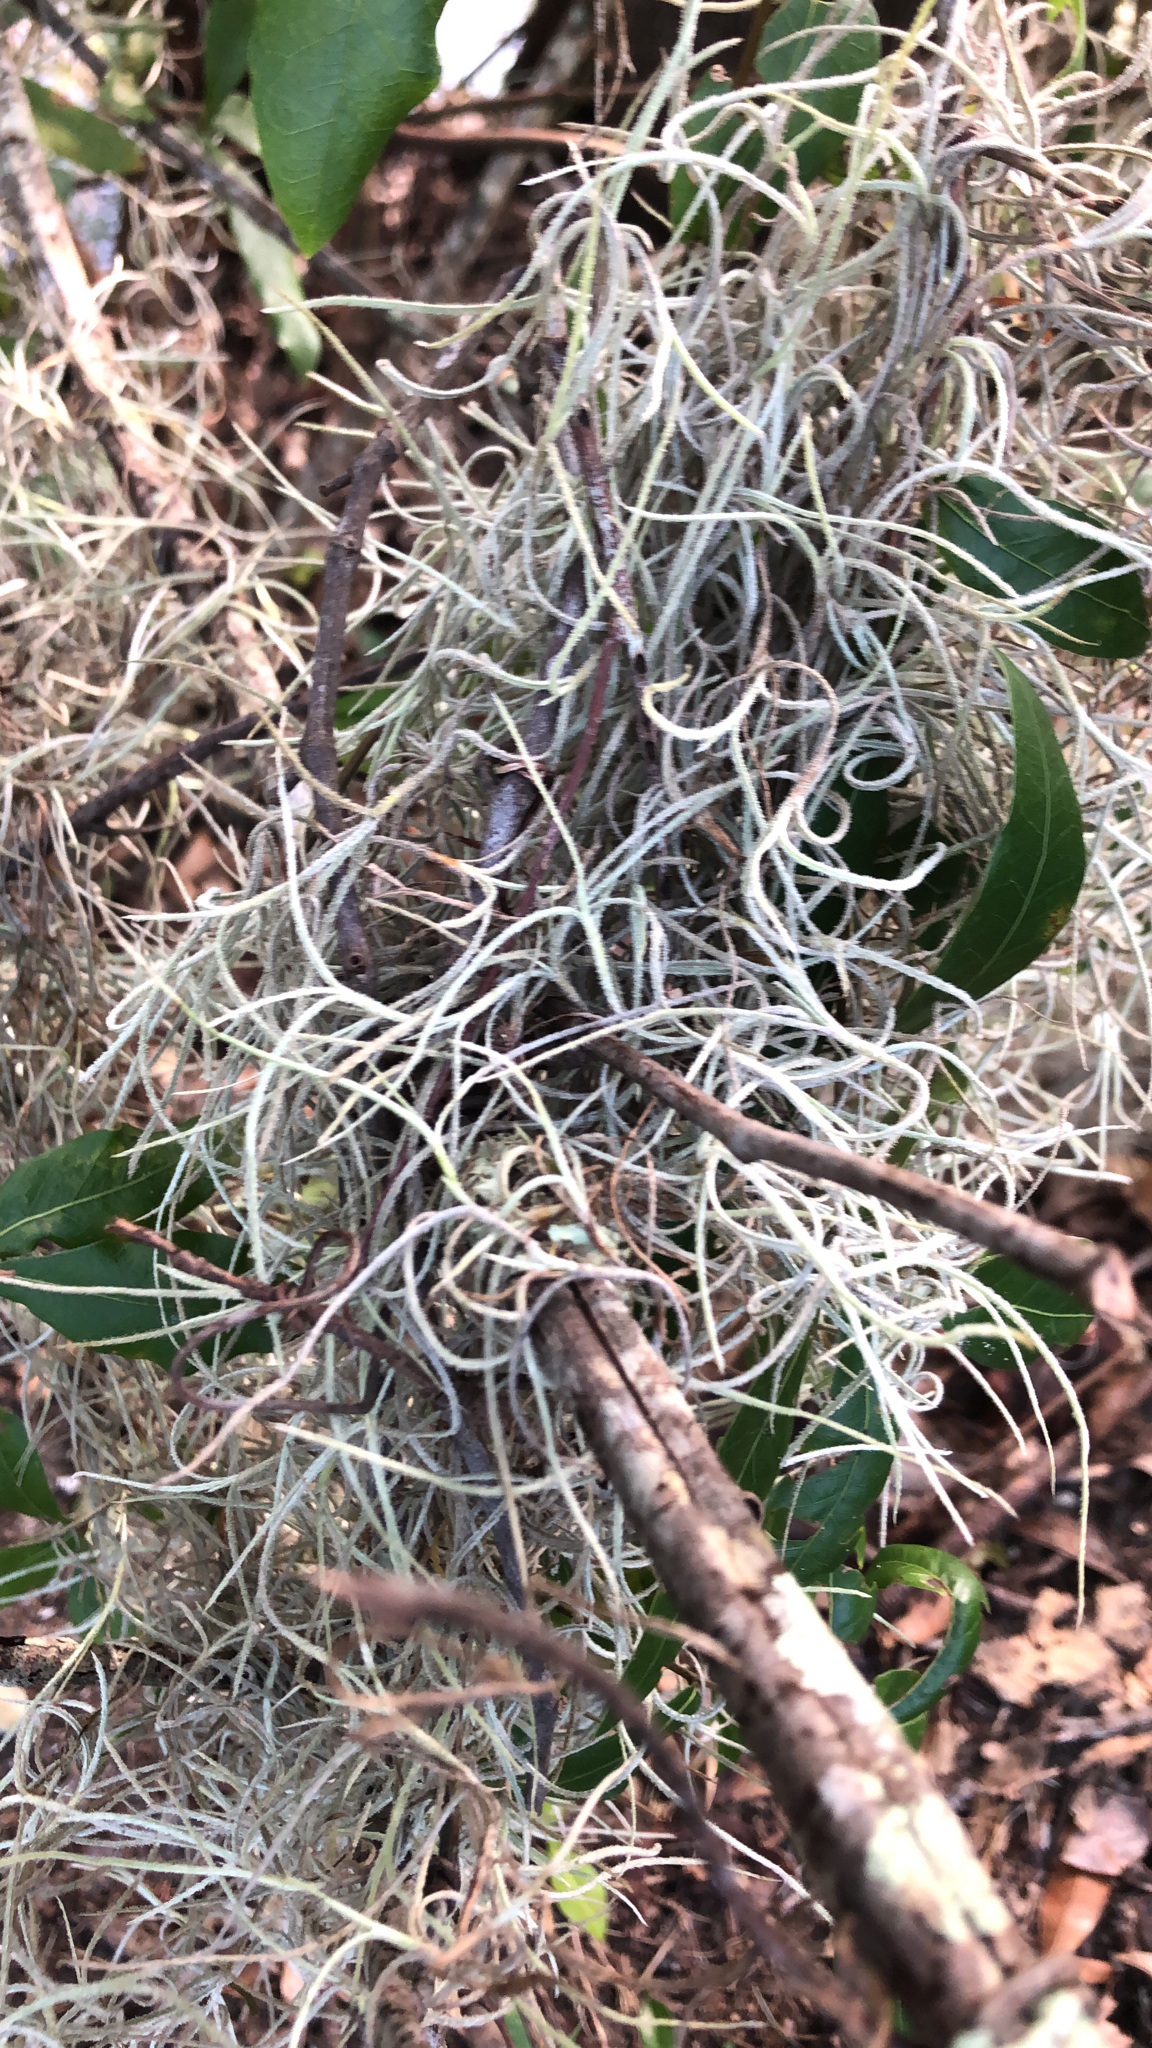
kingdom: Plantae
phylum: Tracheophyta
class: Liliopsida
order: Poales
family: Bromeliaceae
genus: Tillandsia
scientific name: Tillandsia usneoides
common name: Spanish moss
